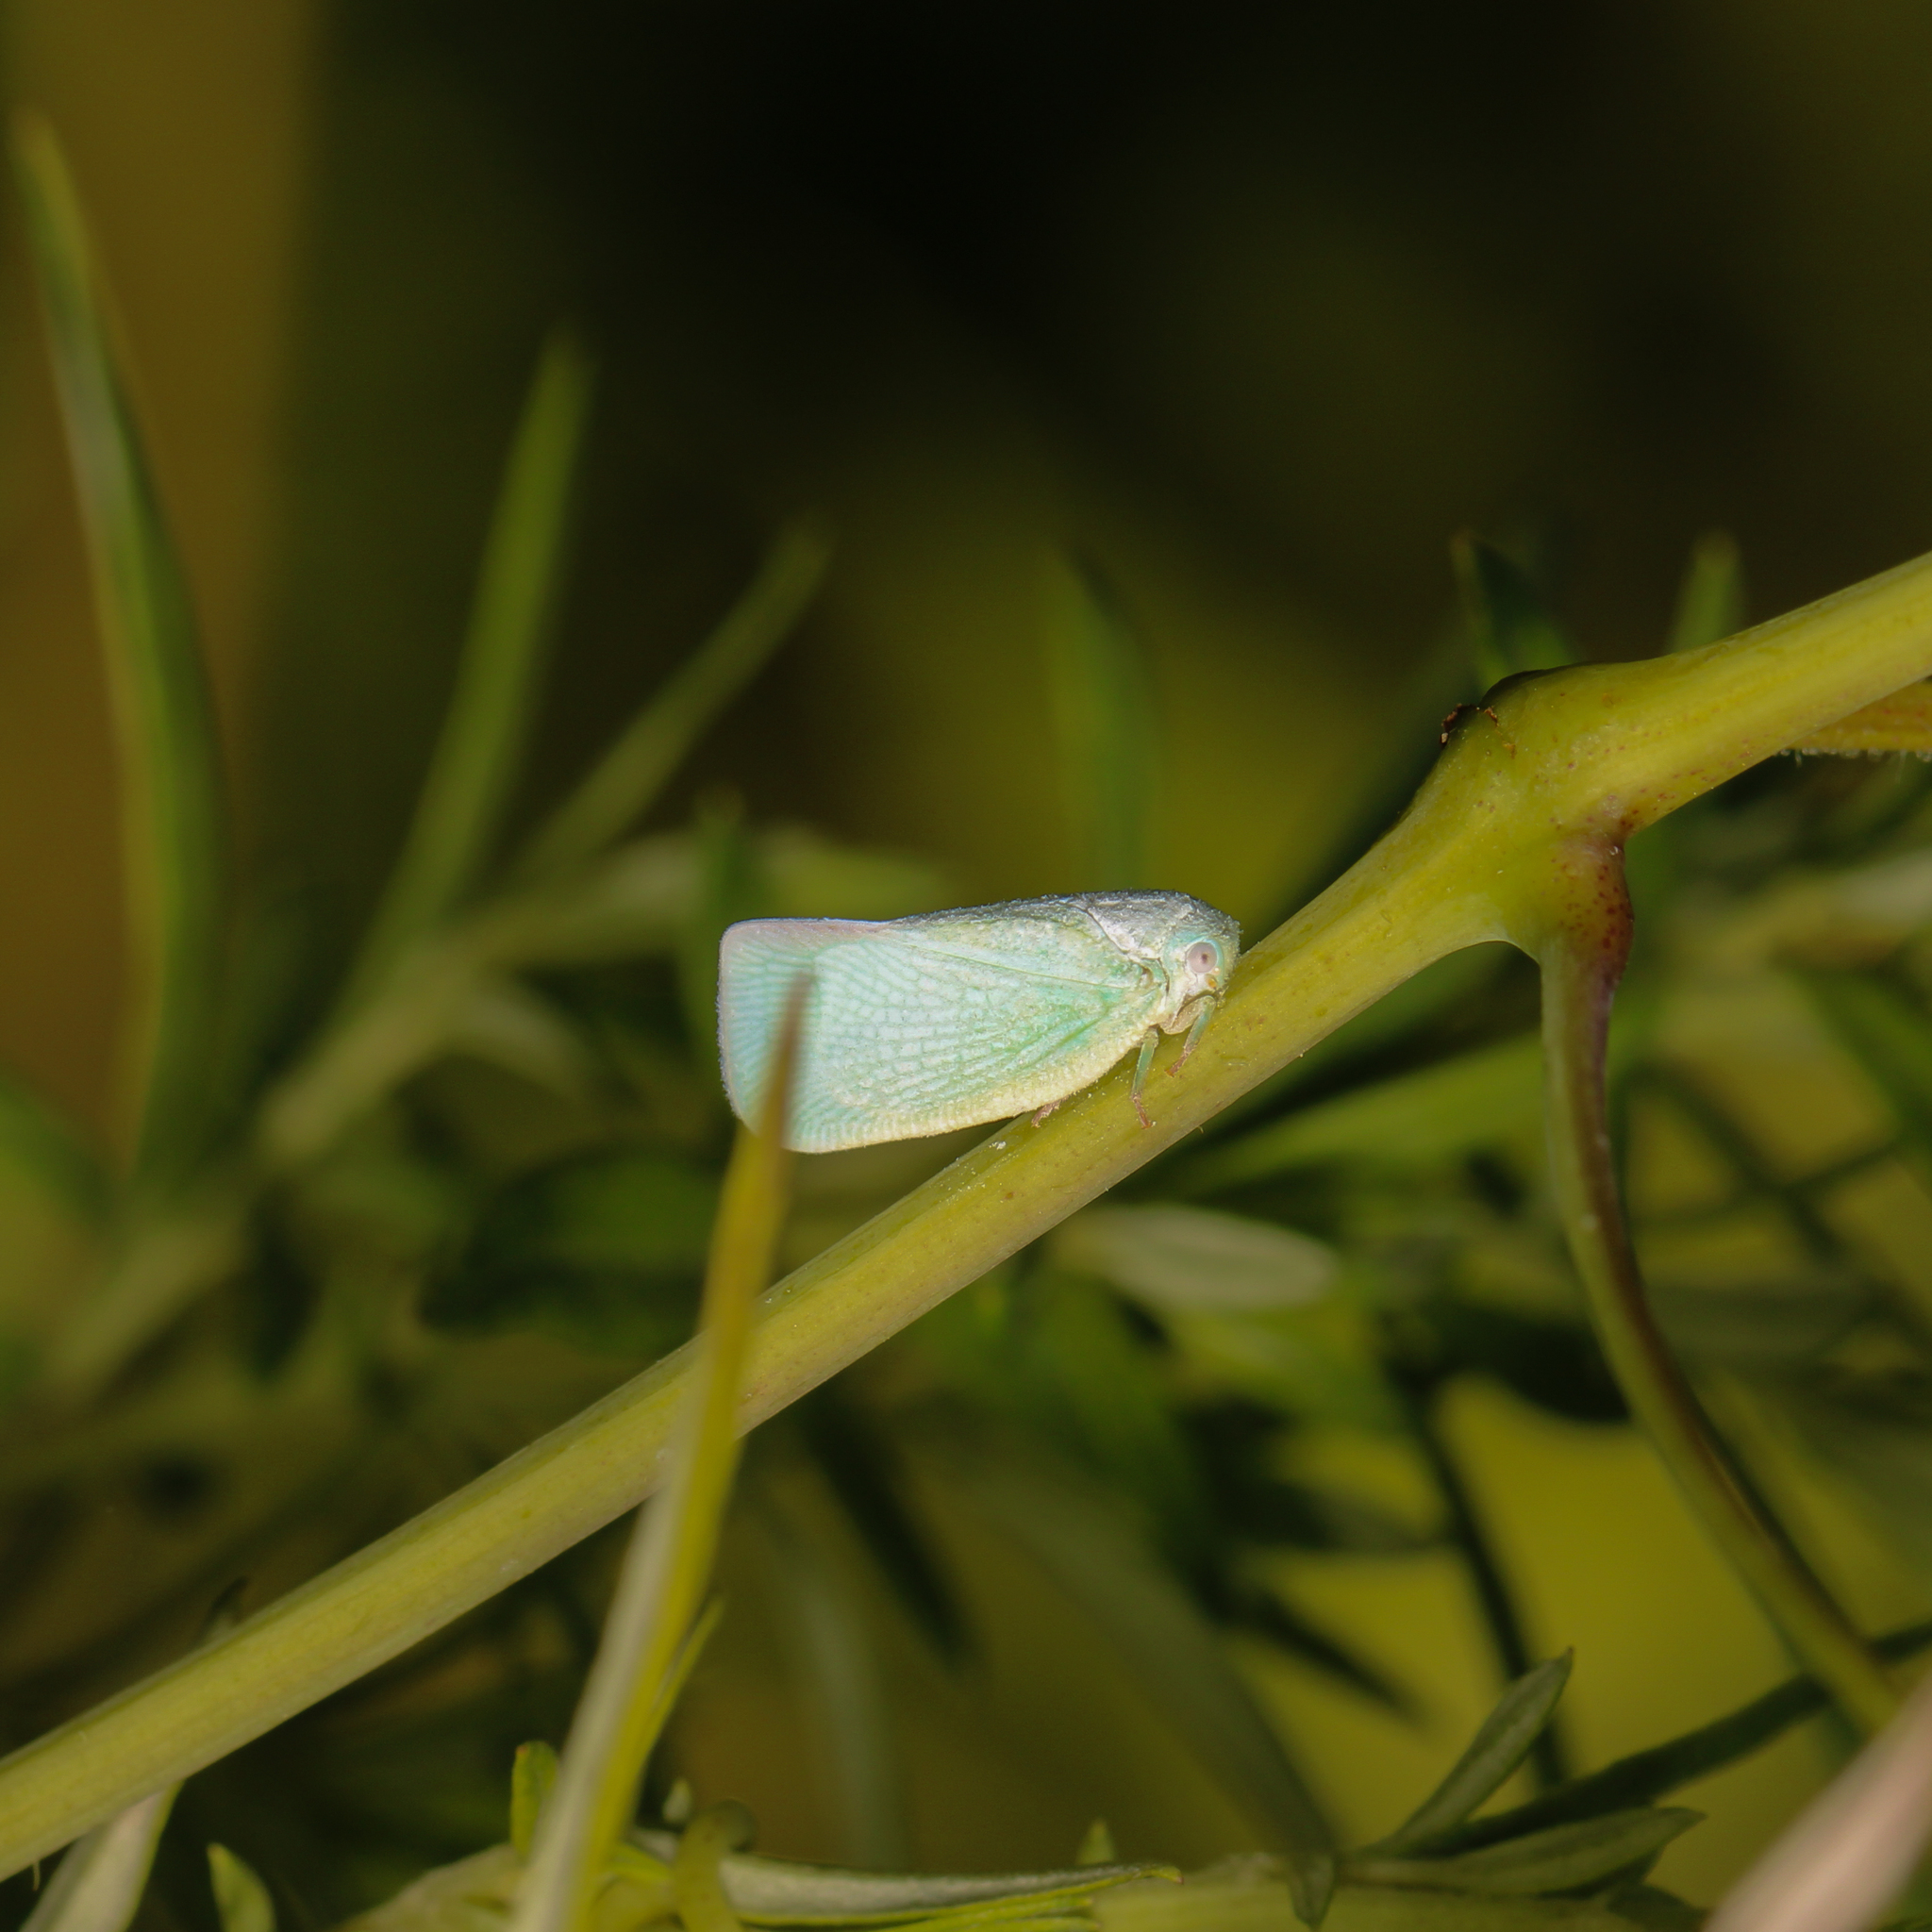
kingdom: Animalia
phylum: Arthropoda
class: Insecta
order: Hemiptera
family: Flatidae
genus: Flatormenis
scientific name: Flatormenis proxima
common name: Northern flatid planthopper
